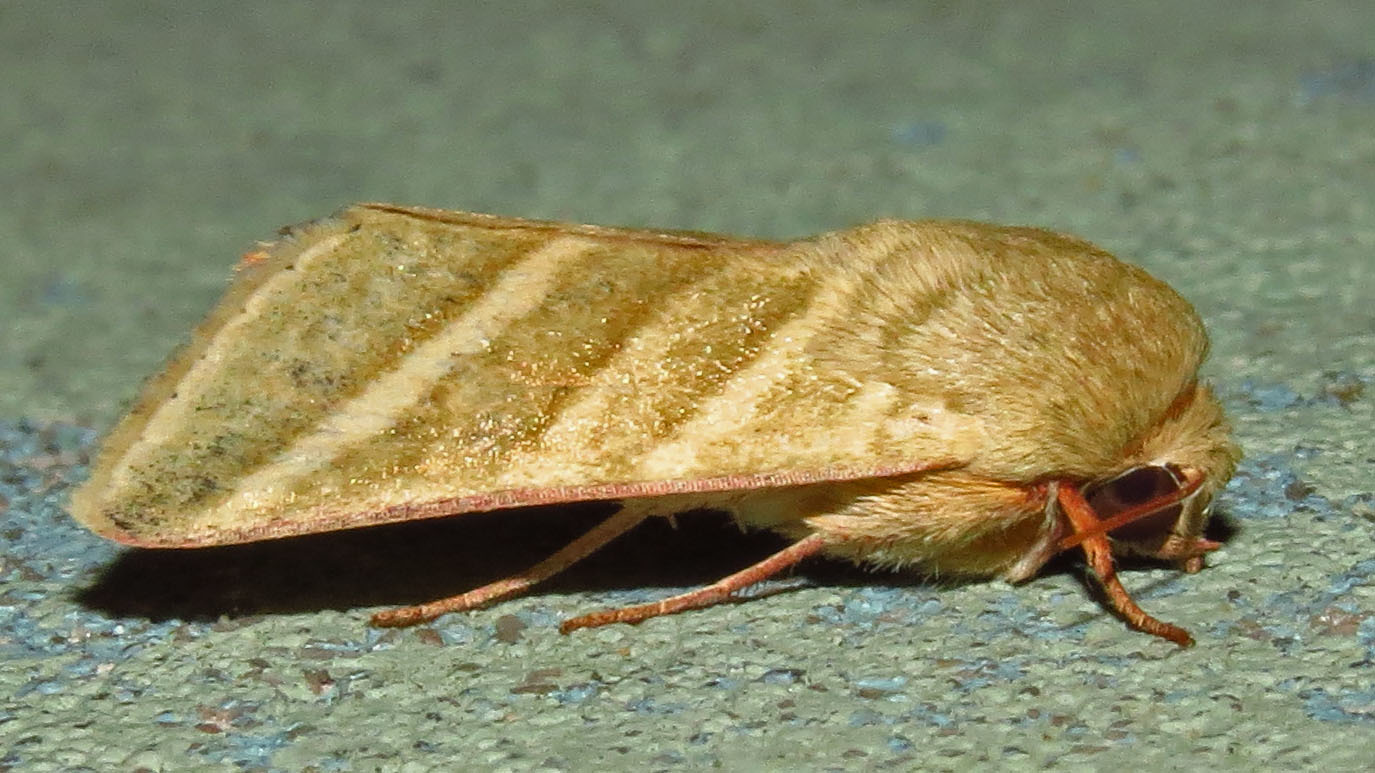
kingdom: Animalia
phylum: Arthropoda
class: Insecta
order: Lepidoptera
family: Noctuidae
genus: Chloridea
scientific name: Chloridea virescens
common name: Tobacco budworm
